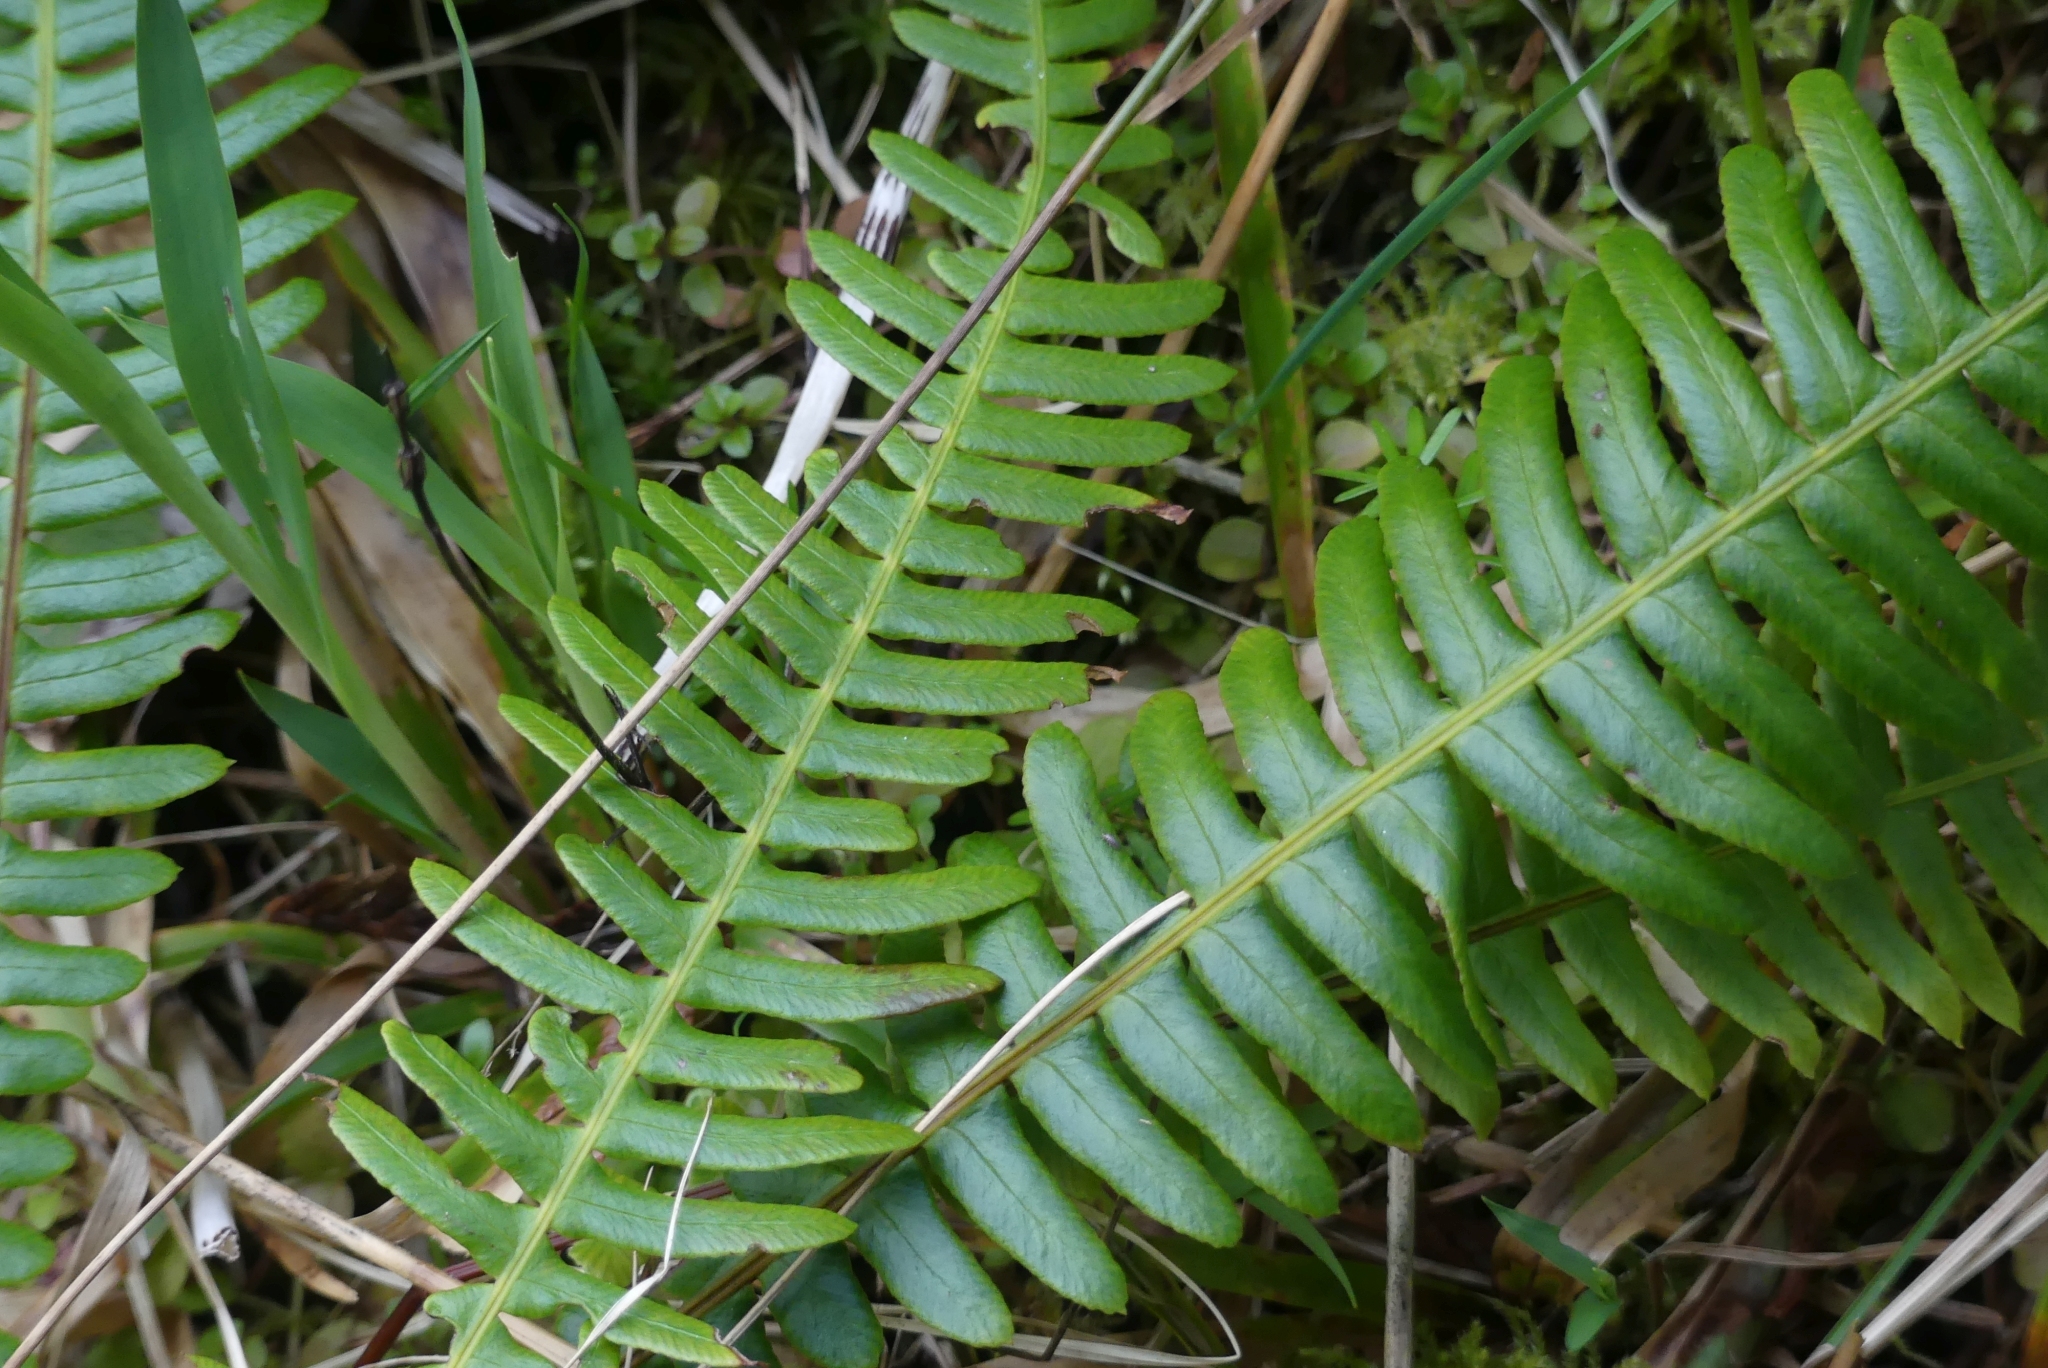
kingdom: Plantae
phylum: Tracheophyta
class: Polypodiopsida
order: Polypodiales
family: Blechnaceae
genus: Struthiopteris
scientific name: Struthiopteris spicant
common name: Deer fern
